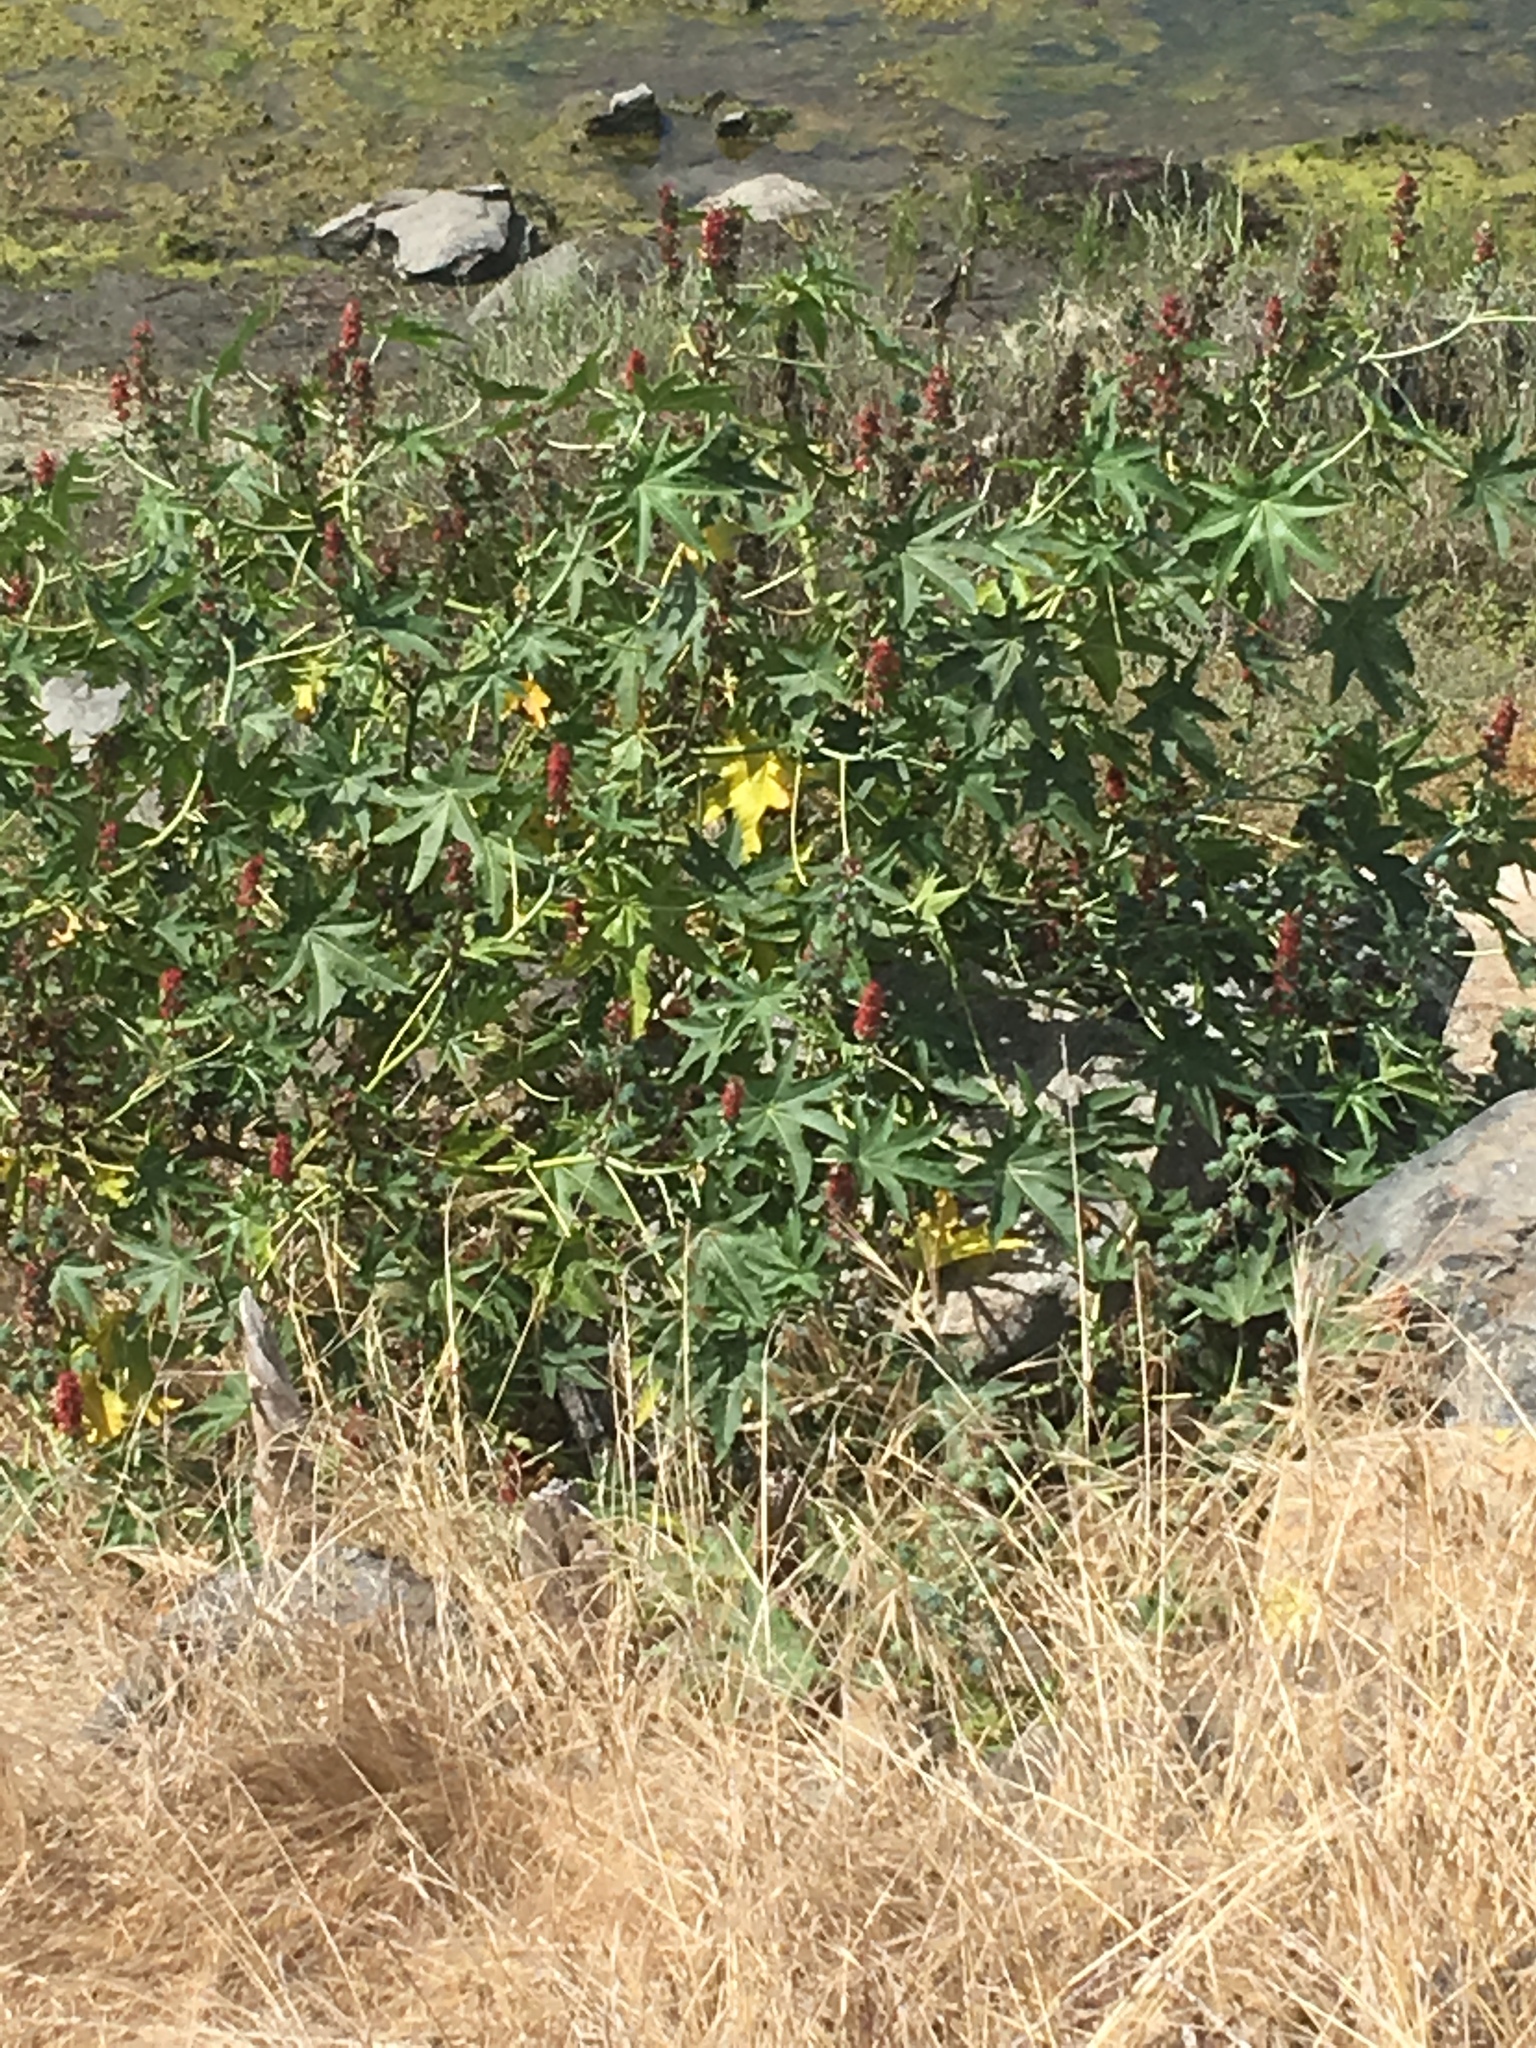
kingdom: Plantae
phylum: Tracheophyta
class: Magnoliopsida
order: Malpighiales
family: Euphorbiaceae
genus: Ricinus
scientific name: Ricinus communis
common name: Castor-oil-plant
